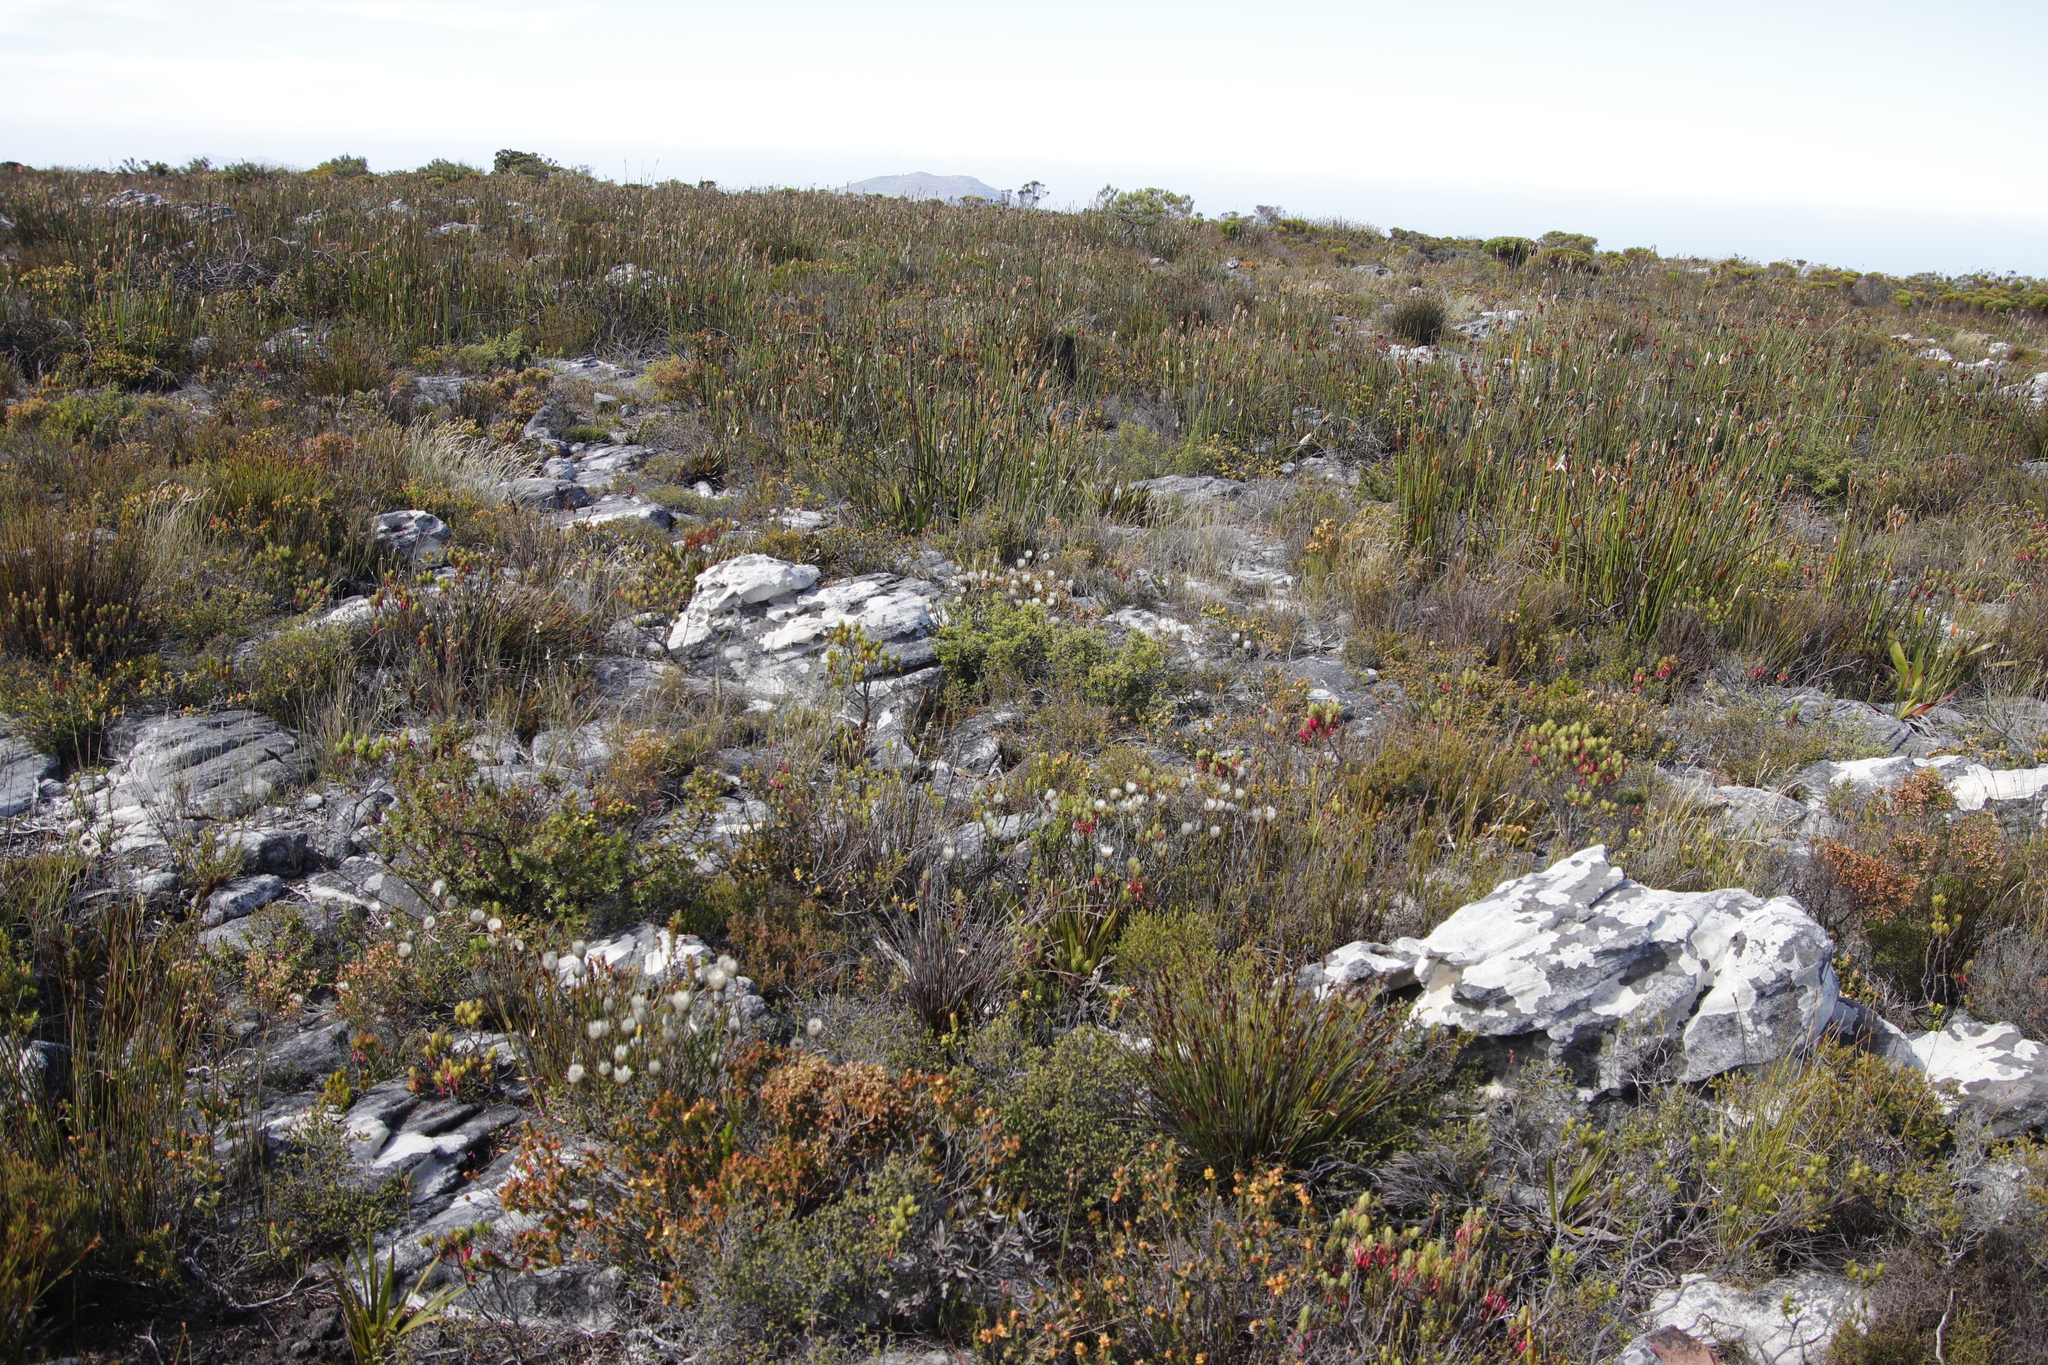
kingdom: Plantae
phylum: Tracheophyta
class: Magnoliopsida
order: Asterales
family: Asteraceae
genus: Edmondia
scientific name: Edmondia pinifolia
